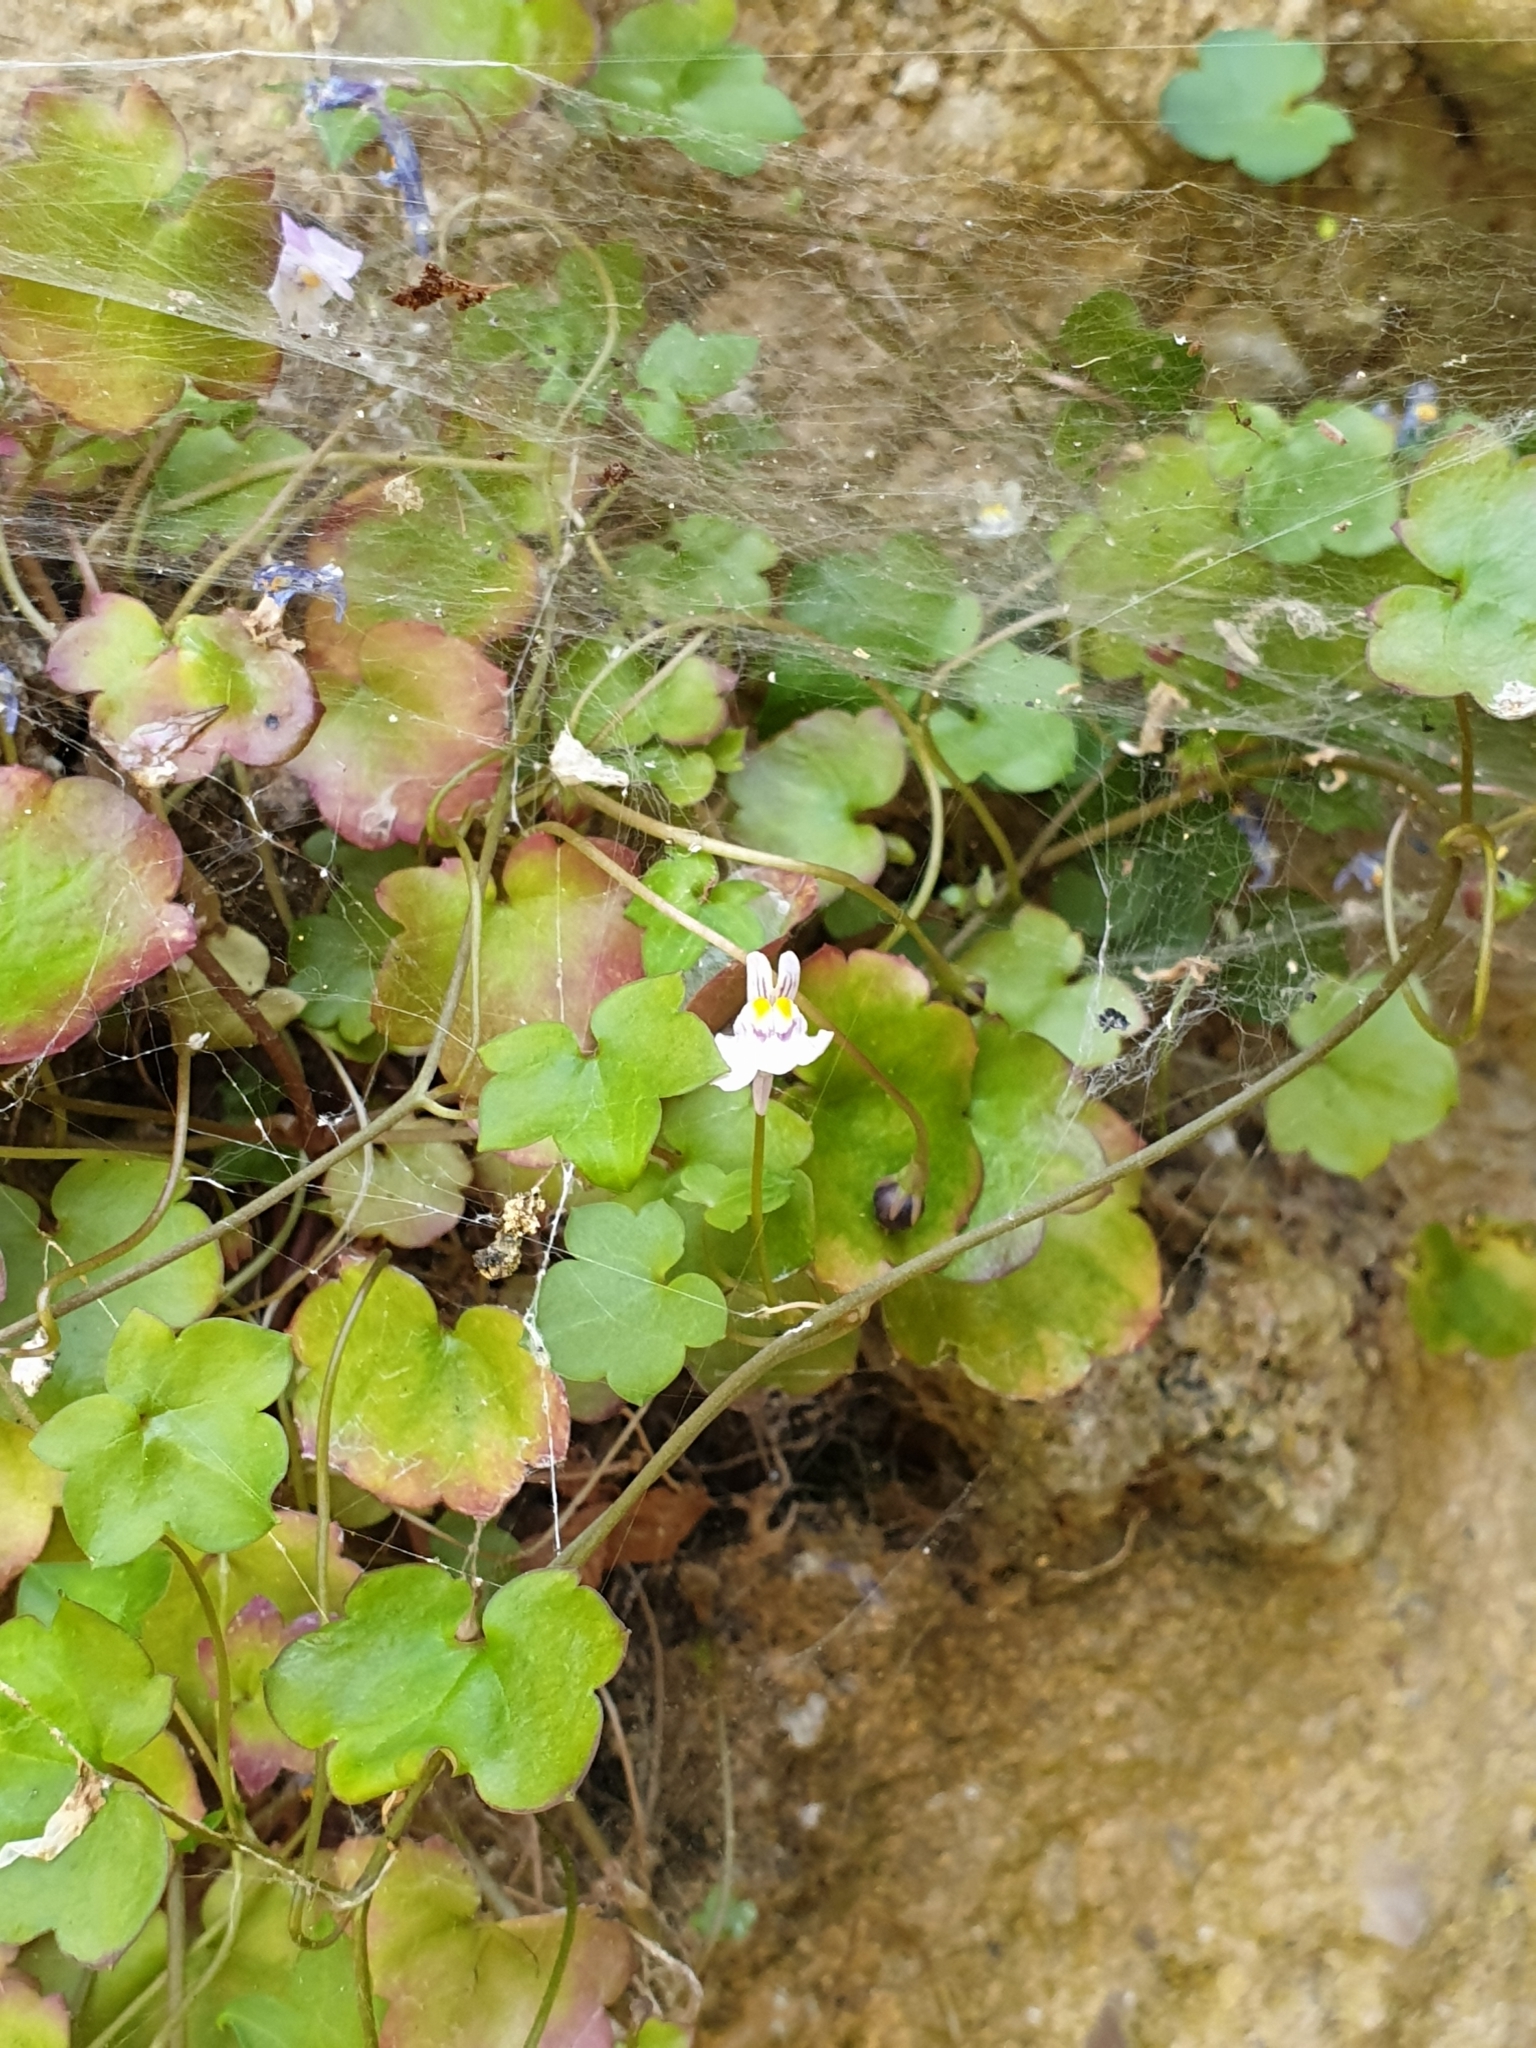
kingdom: Plantae
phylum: Tracheophyta
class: Magnoliopsida
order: Lamiales
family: Plantaginaceae
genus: Cymbalaria
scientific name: Cymbalaria muralis
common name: Ivy-leaved toadflax
